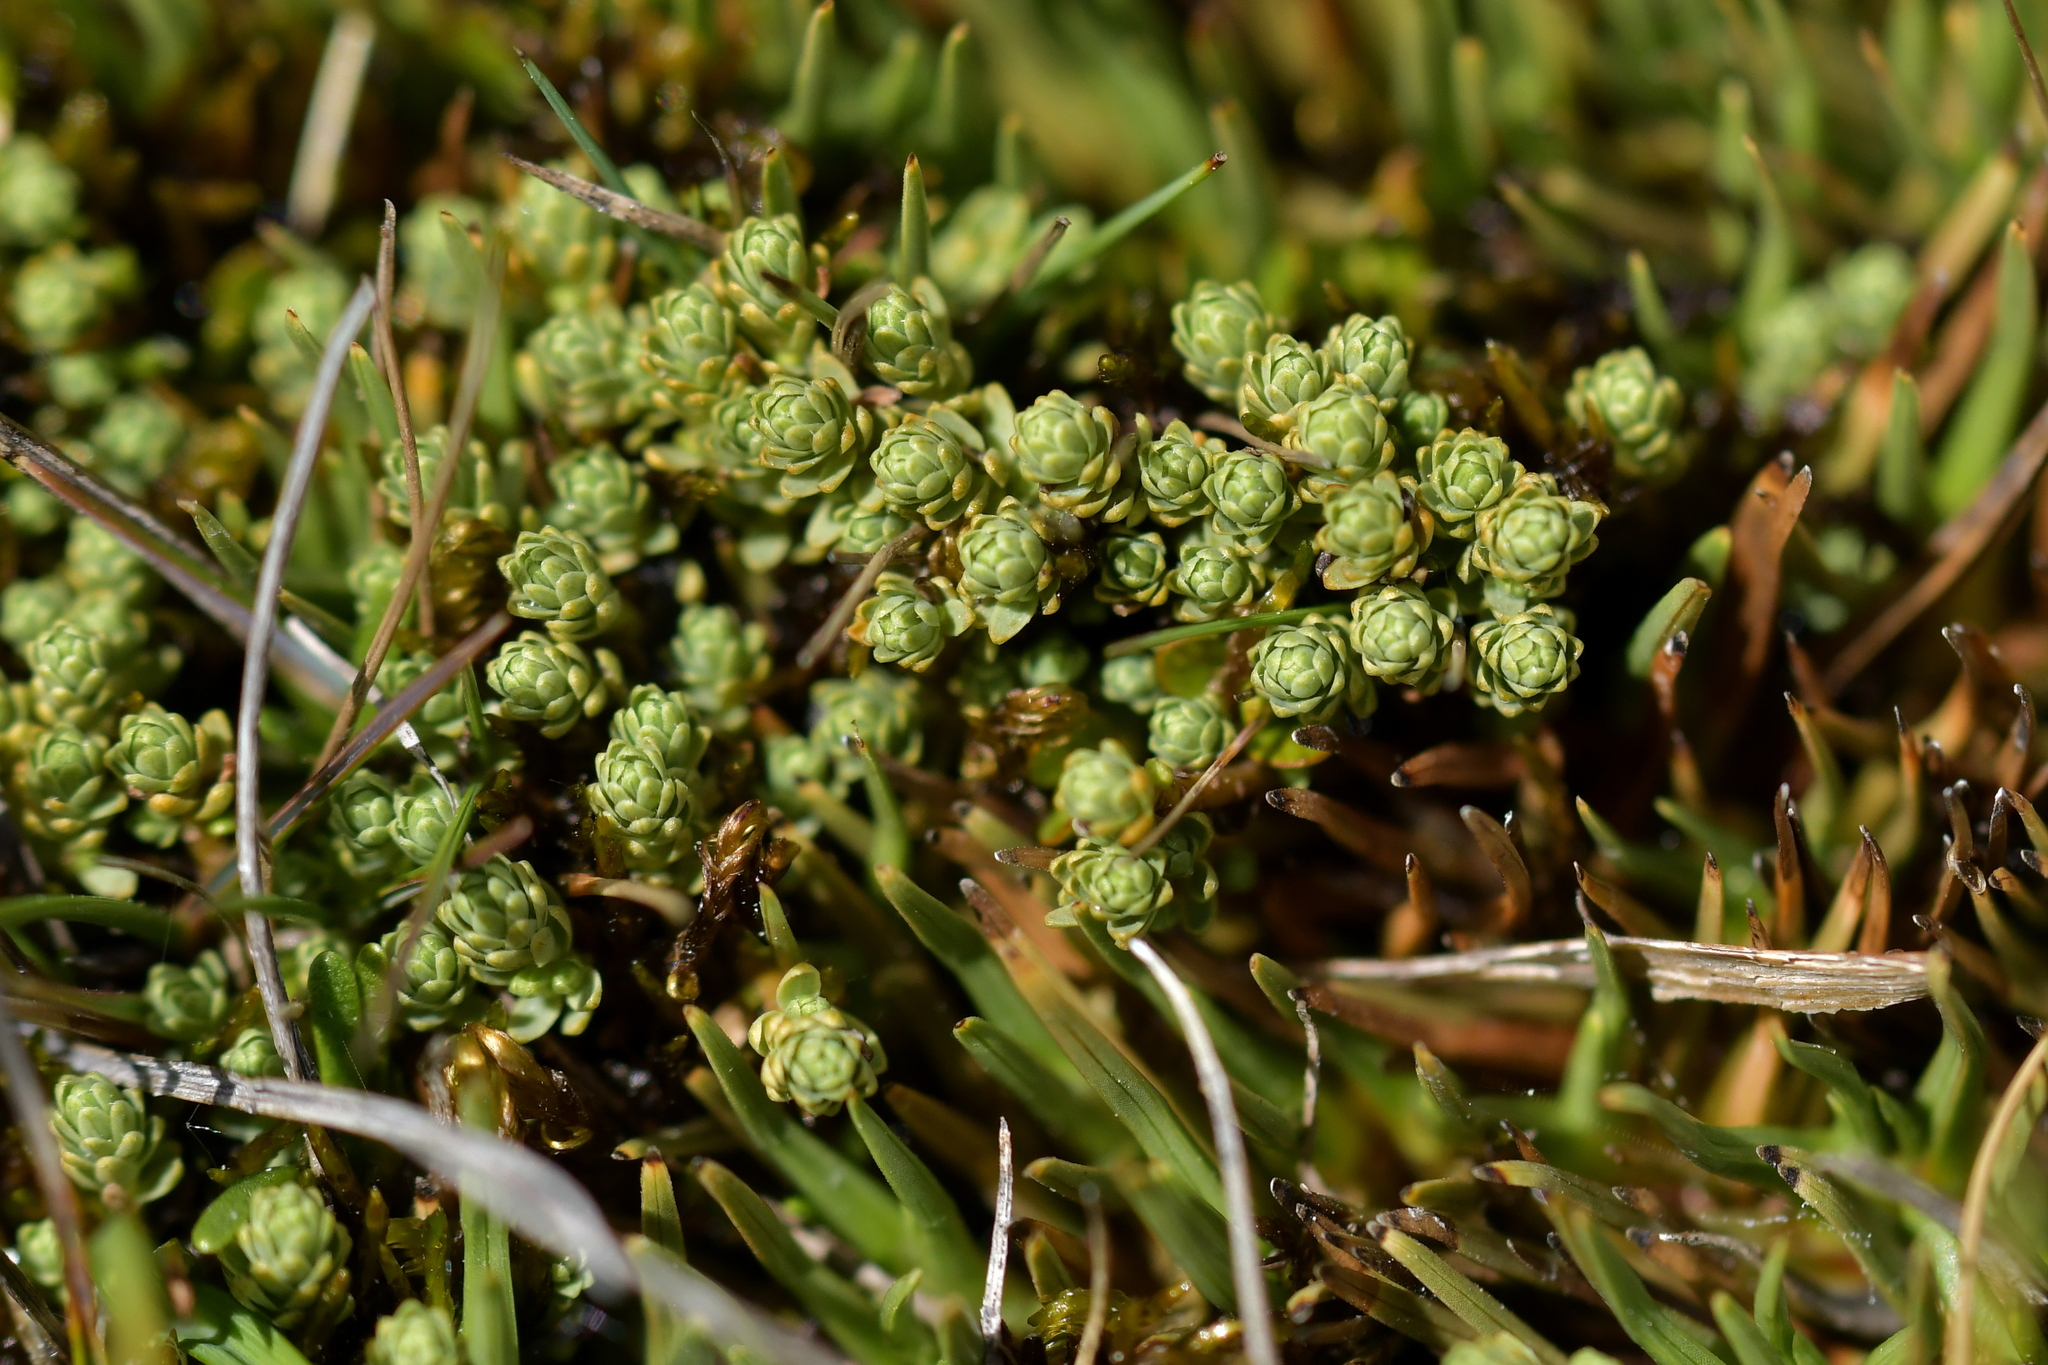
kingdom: Plantae
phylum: Tracheophyta
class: Magnoliopsida
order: Malvales
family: Thymelaeaceae
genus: Kelleria
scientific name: Kelleria paludosa
